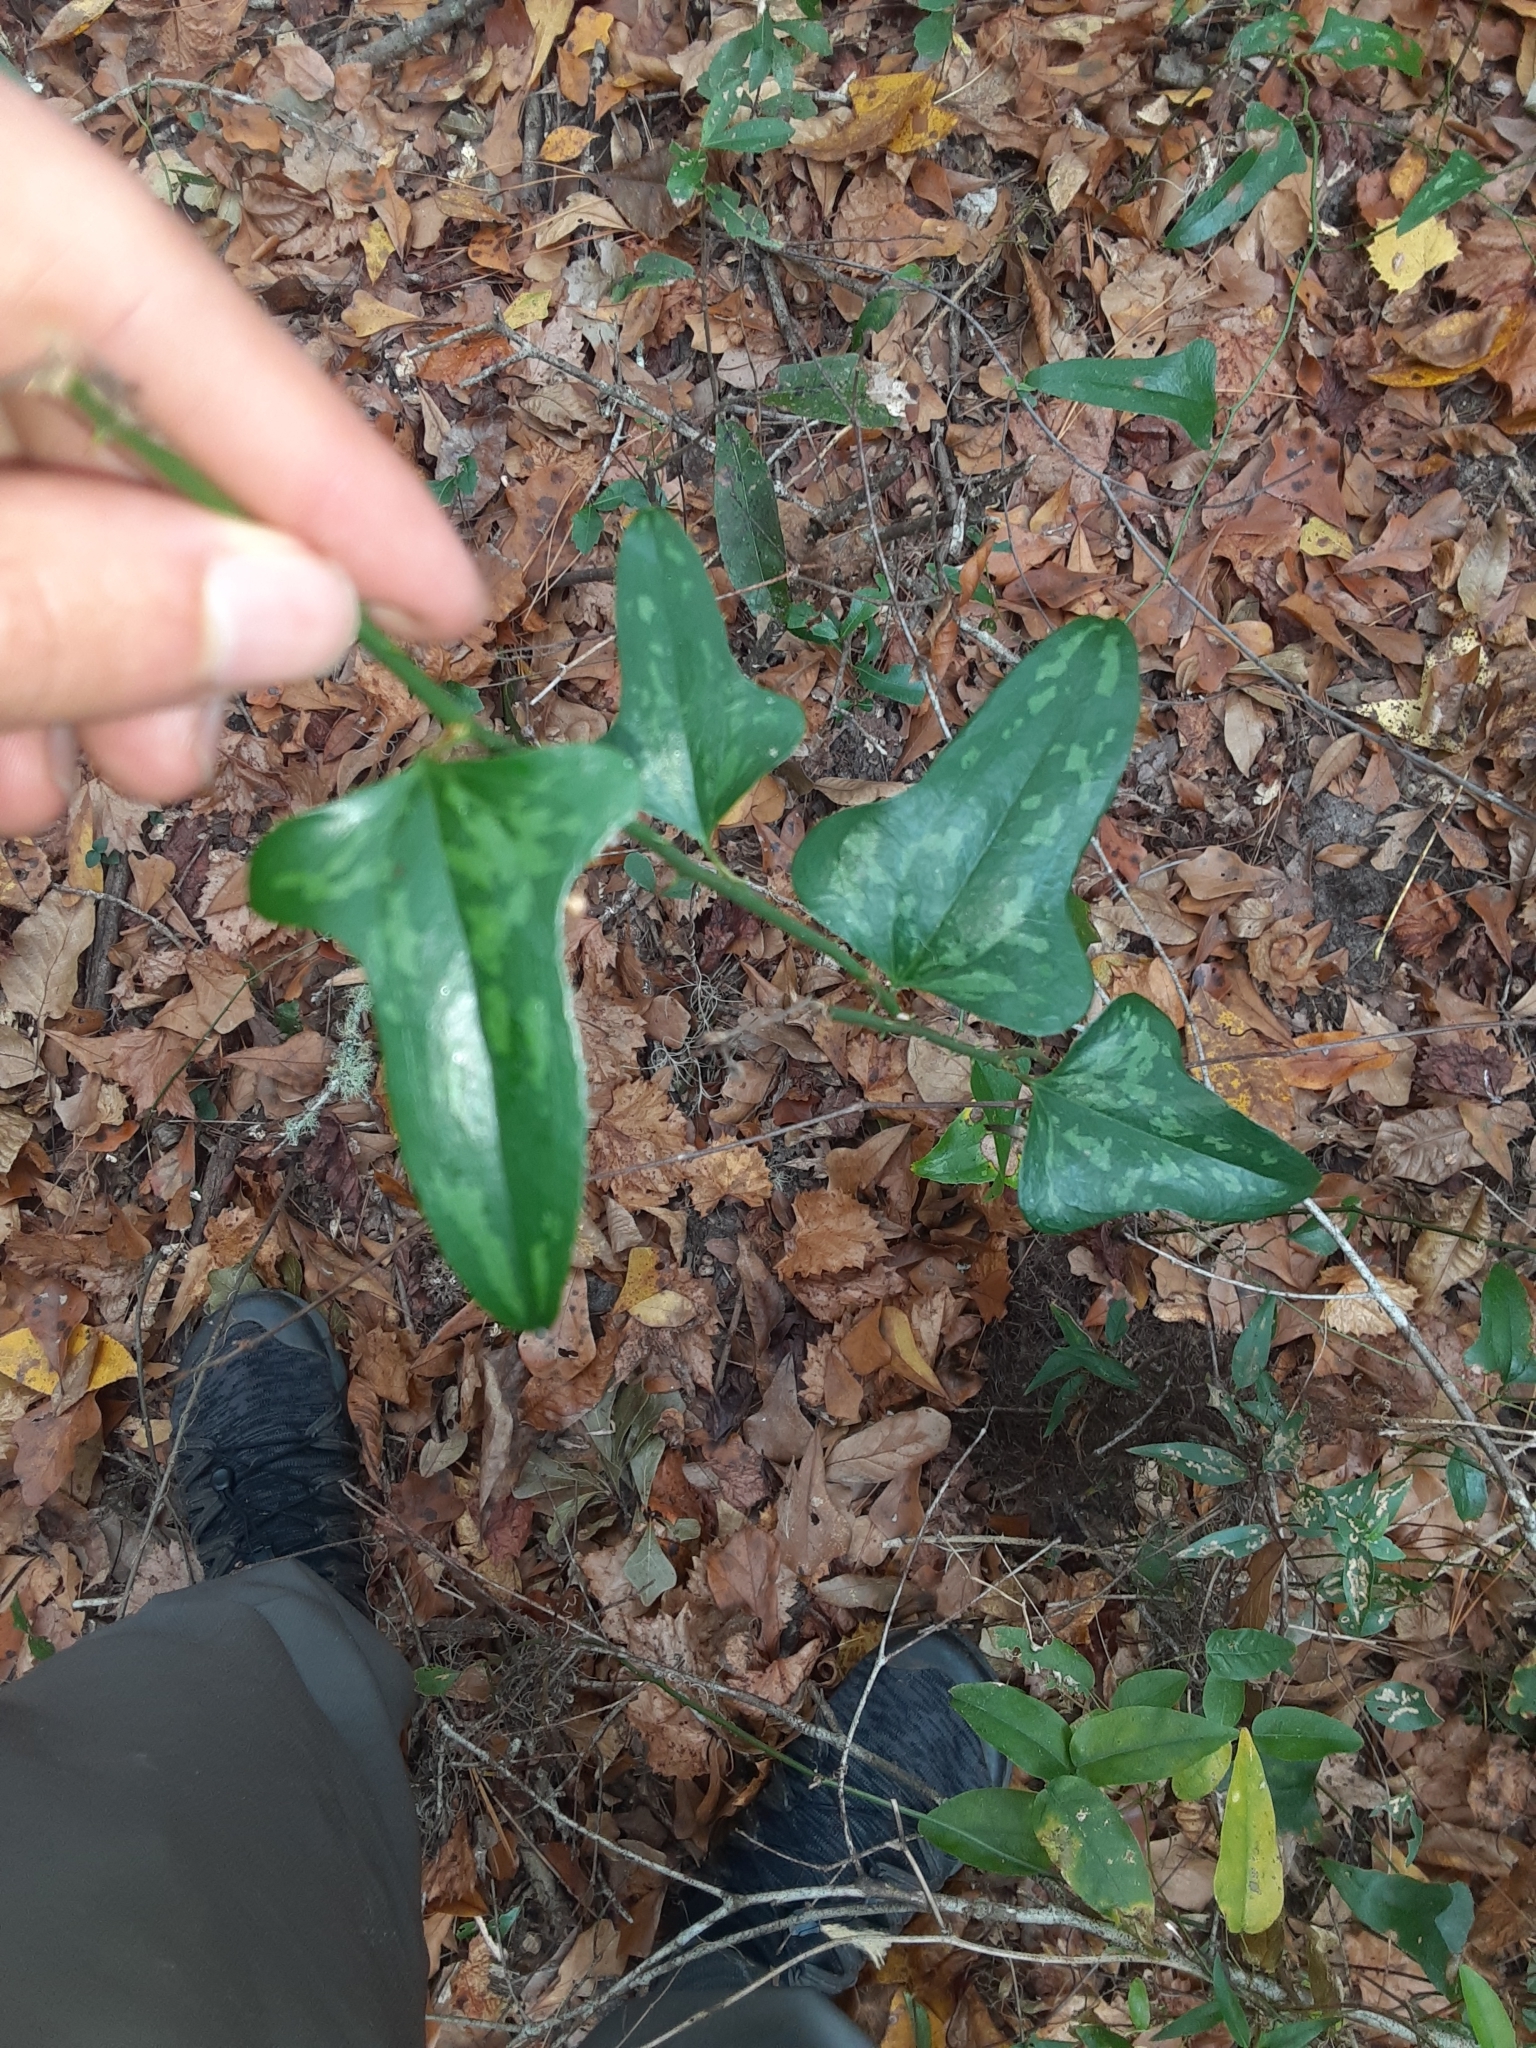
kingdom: Plantae
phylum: Tracheophyta
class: Liliopsida
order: Liliales
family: Smilacaceae
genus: Smilax
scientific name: Smilax bona-nox
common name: Catbrier
